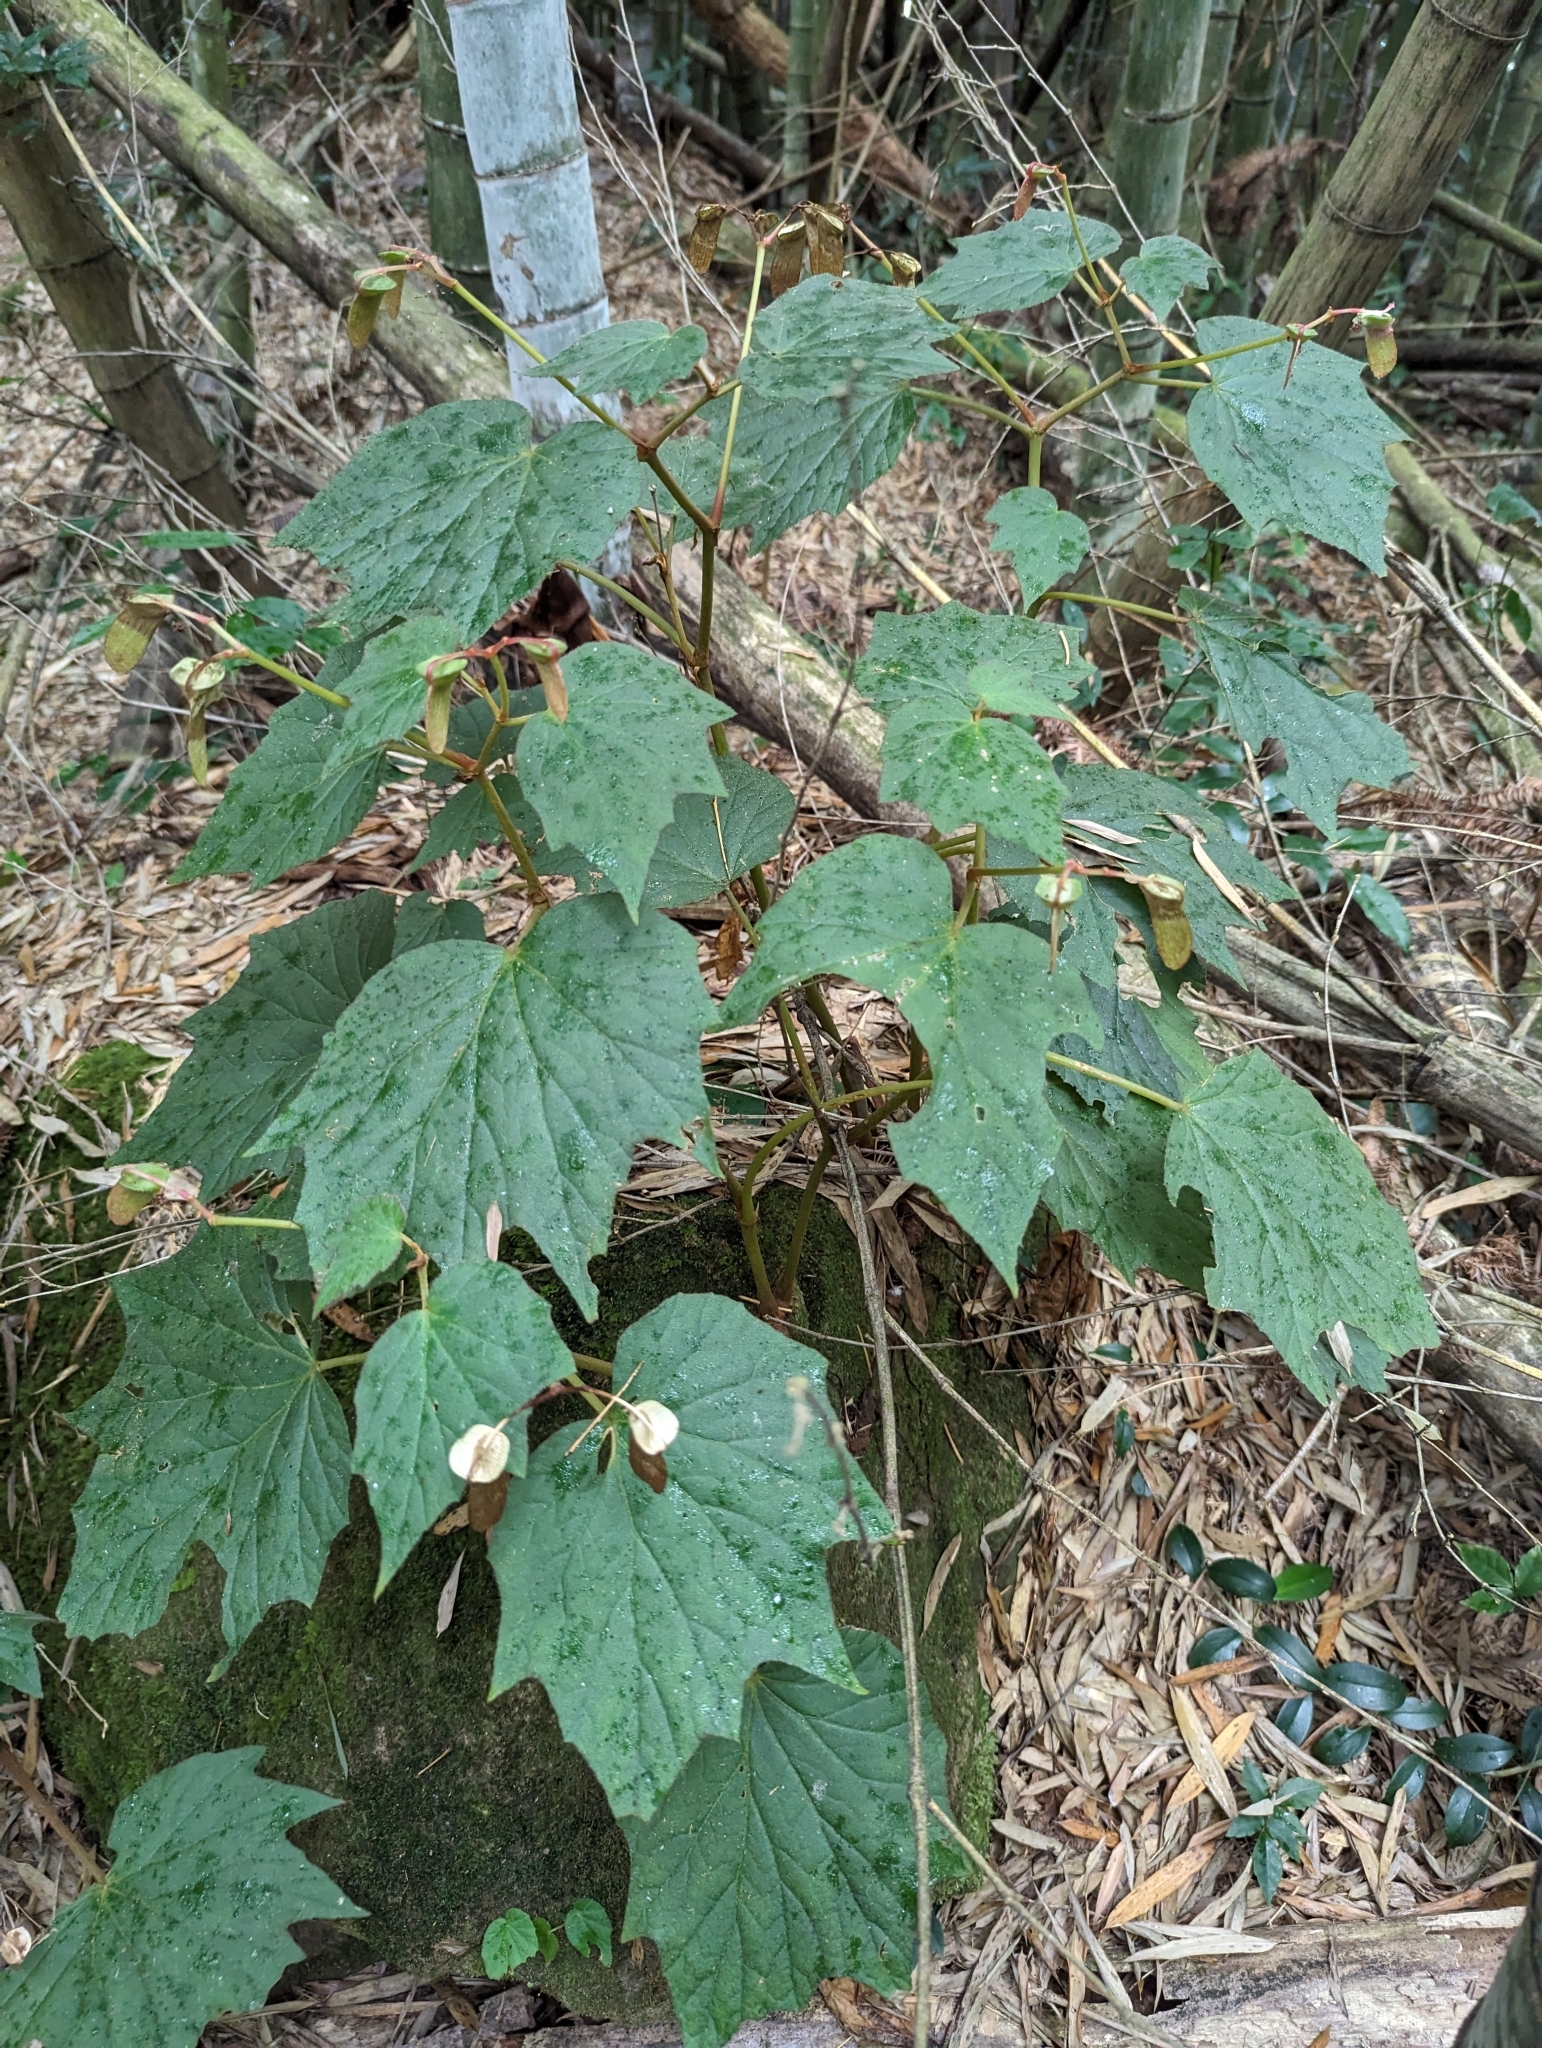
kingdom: Plantae
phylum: Tracheophyta
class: Magnoliopsida
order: Cucurbitales
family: Begoniaceae
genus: Begonia
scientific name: Begonia palmata
